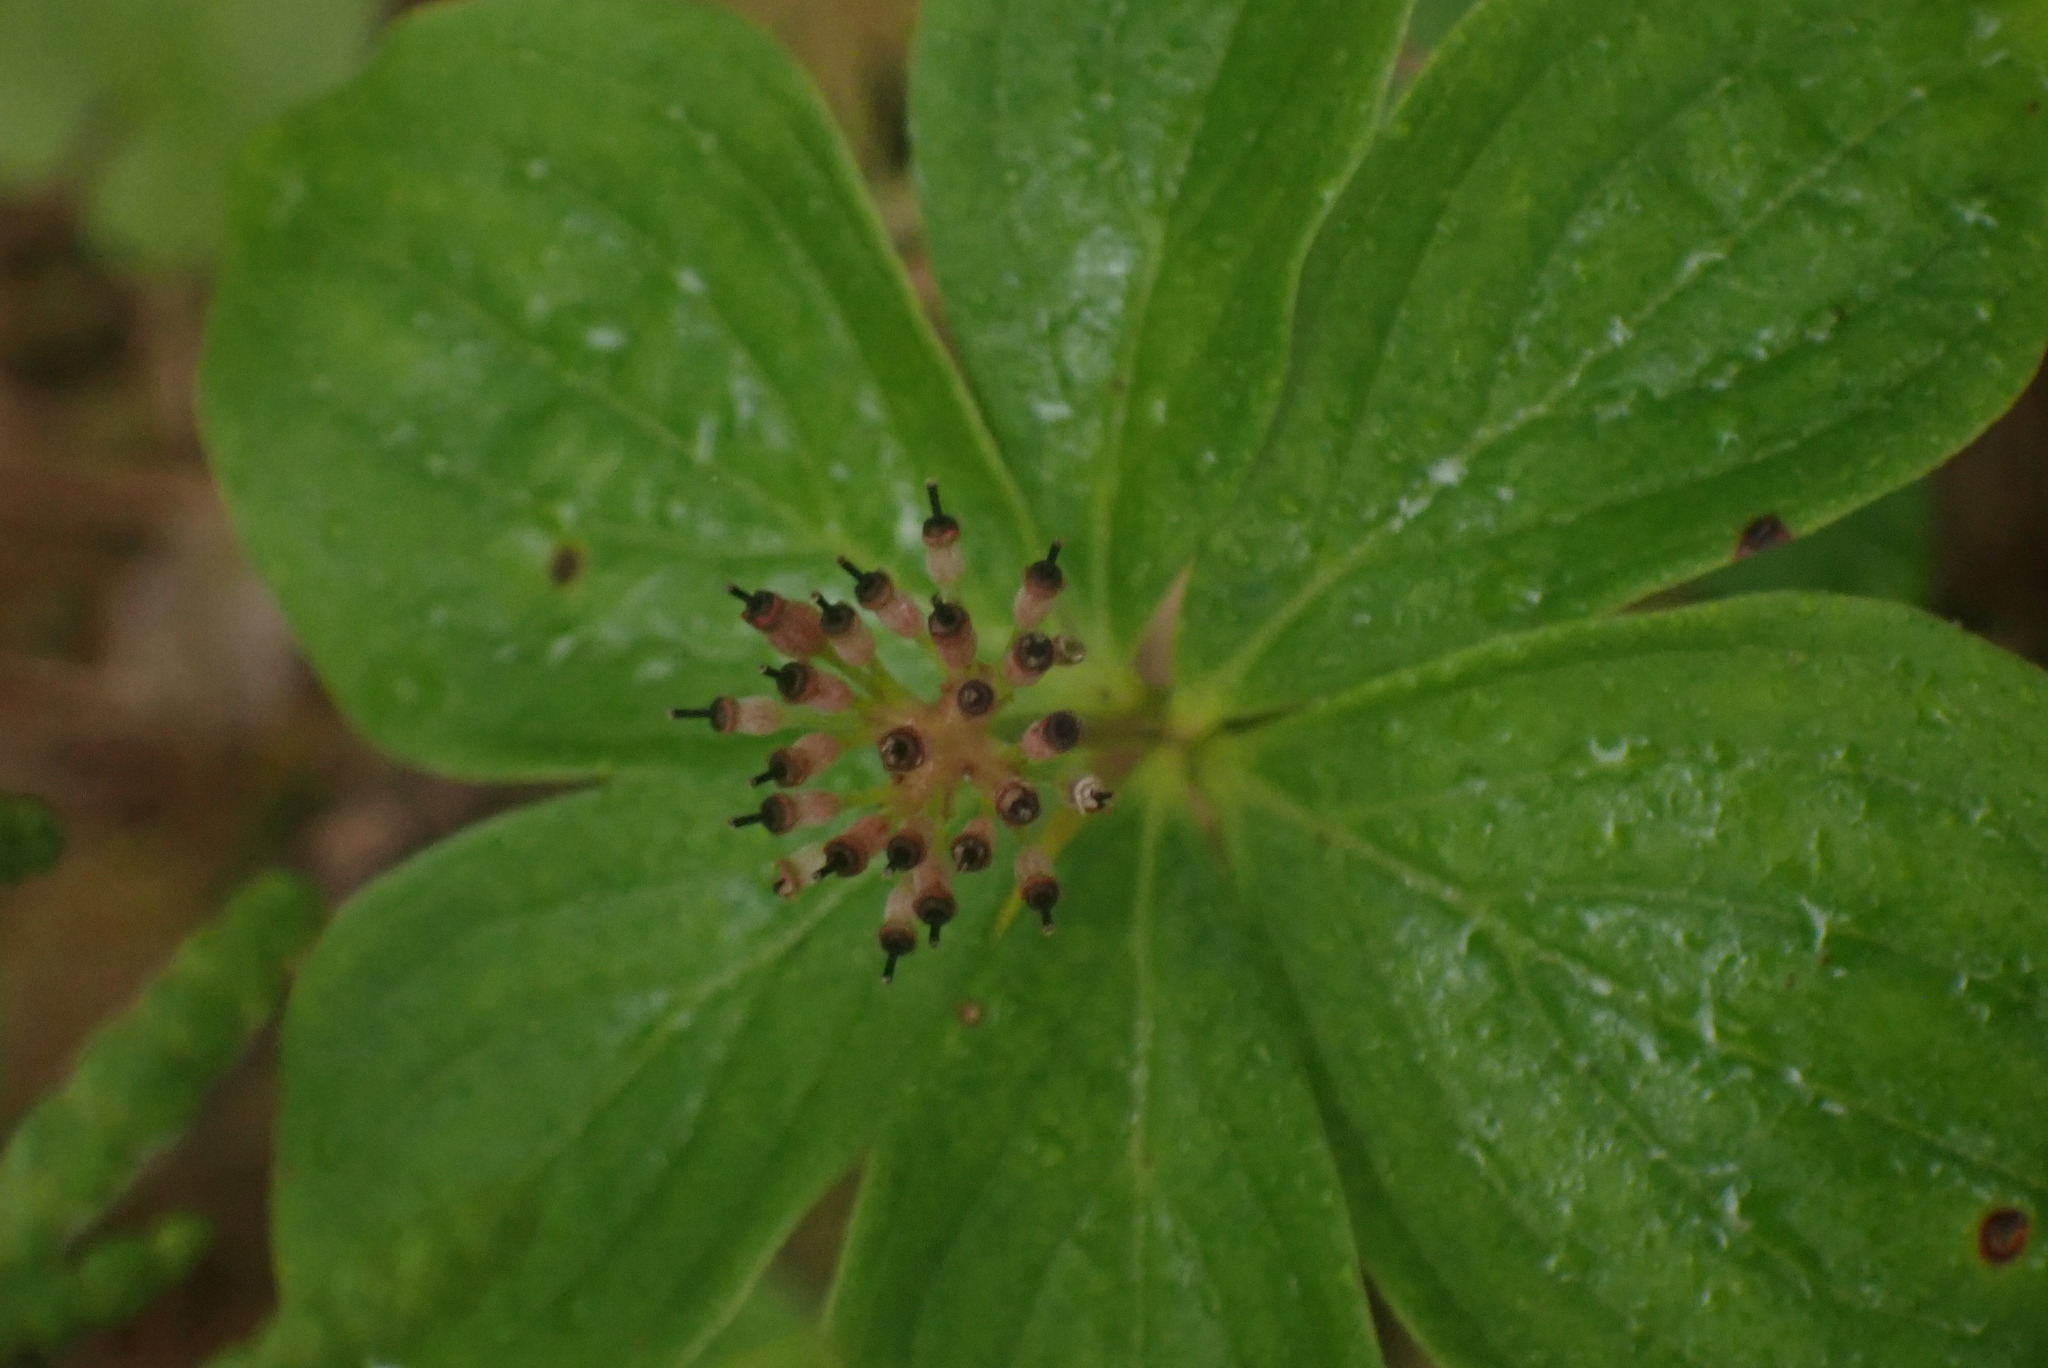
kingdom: Plantae
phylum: Tracheophyta
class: Magnoliopsida
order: Cornales
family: Cornaceae
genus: Cornus
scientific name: Cornus unalaschkensis
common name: Alaska bunchberry
